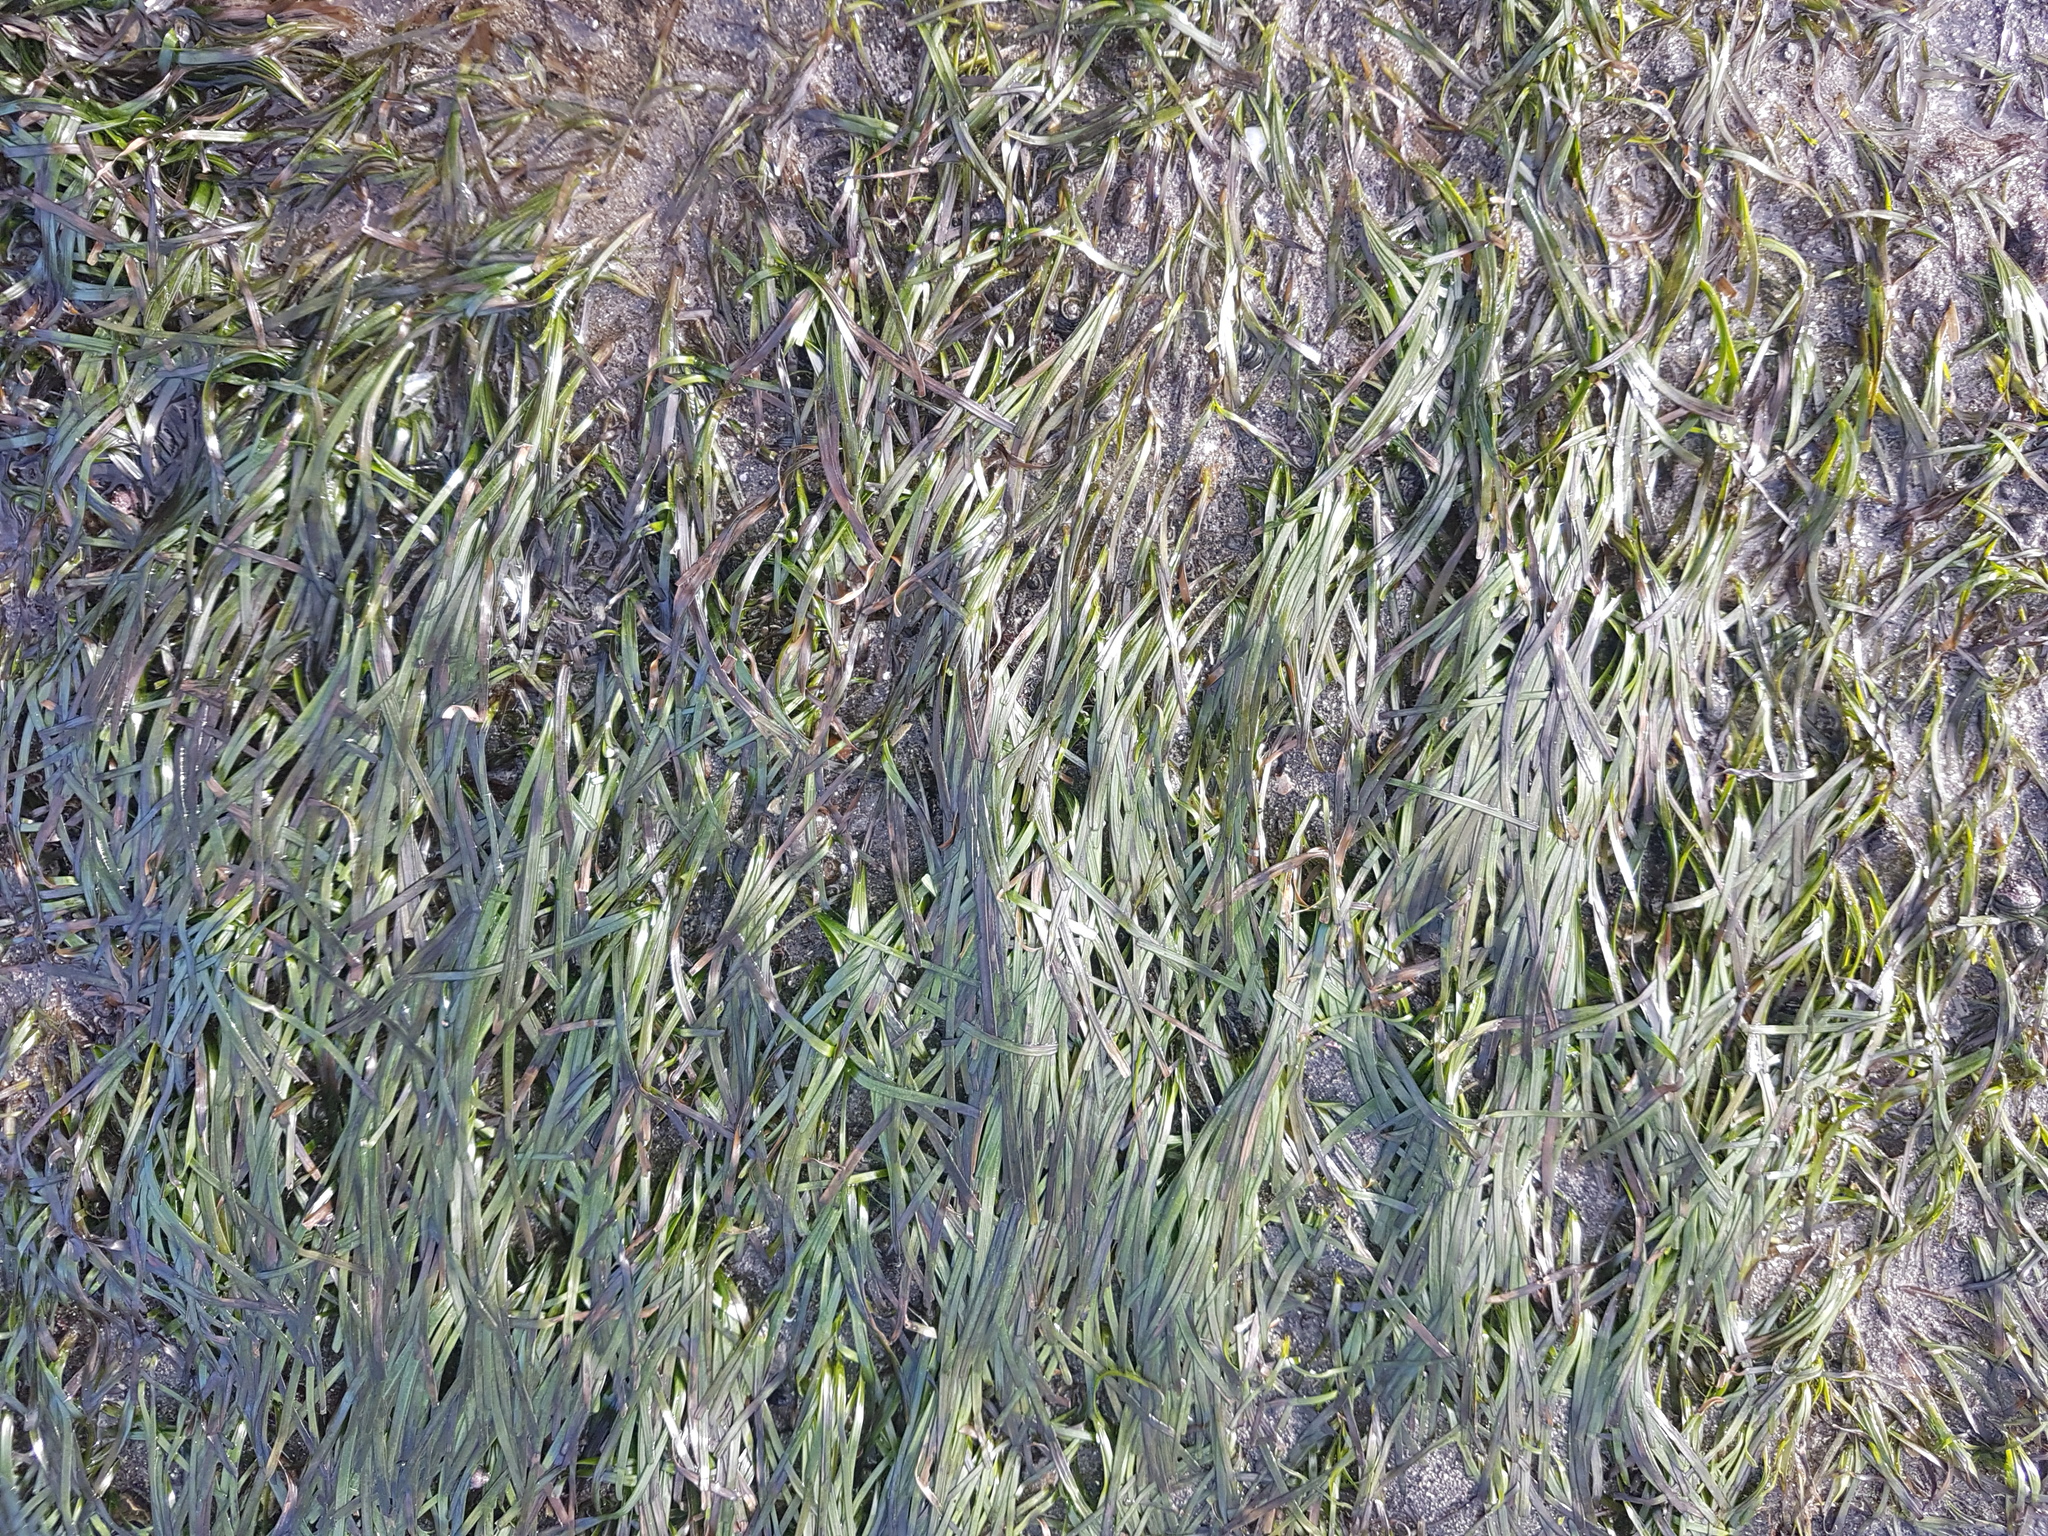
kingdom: Plantae
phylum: Tracheophyta
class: Liliopsida
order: Alismatales
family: Zosteraceae
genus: Zostera
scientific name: Zostera novazelandica
